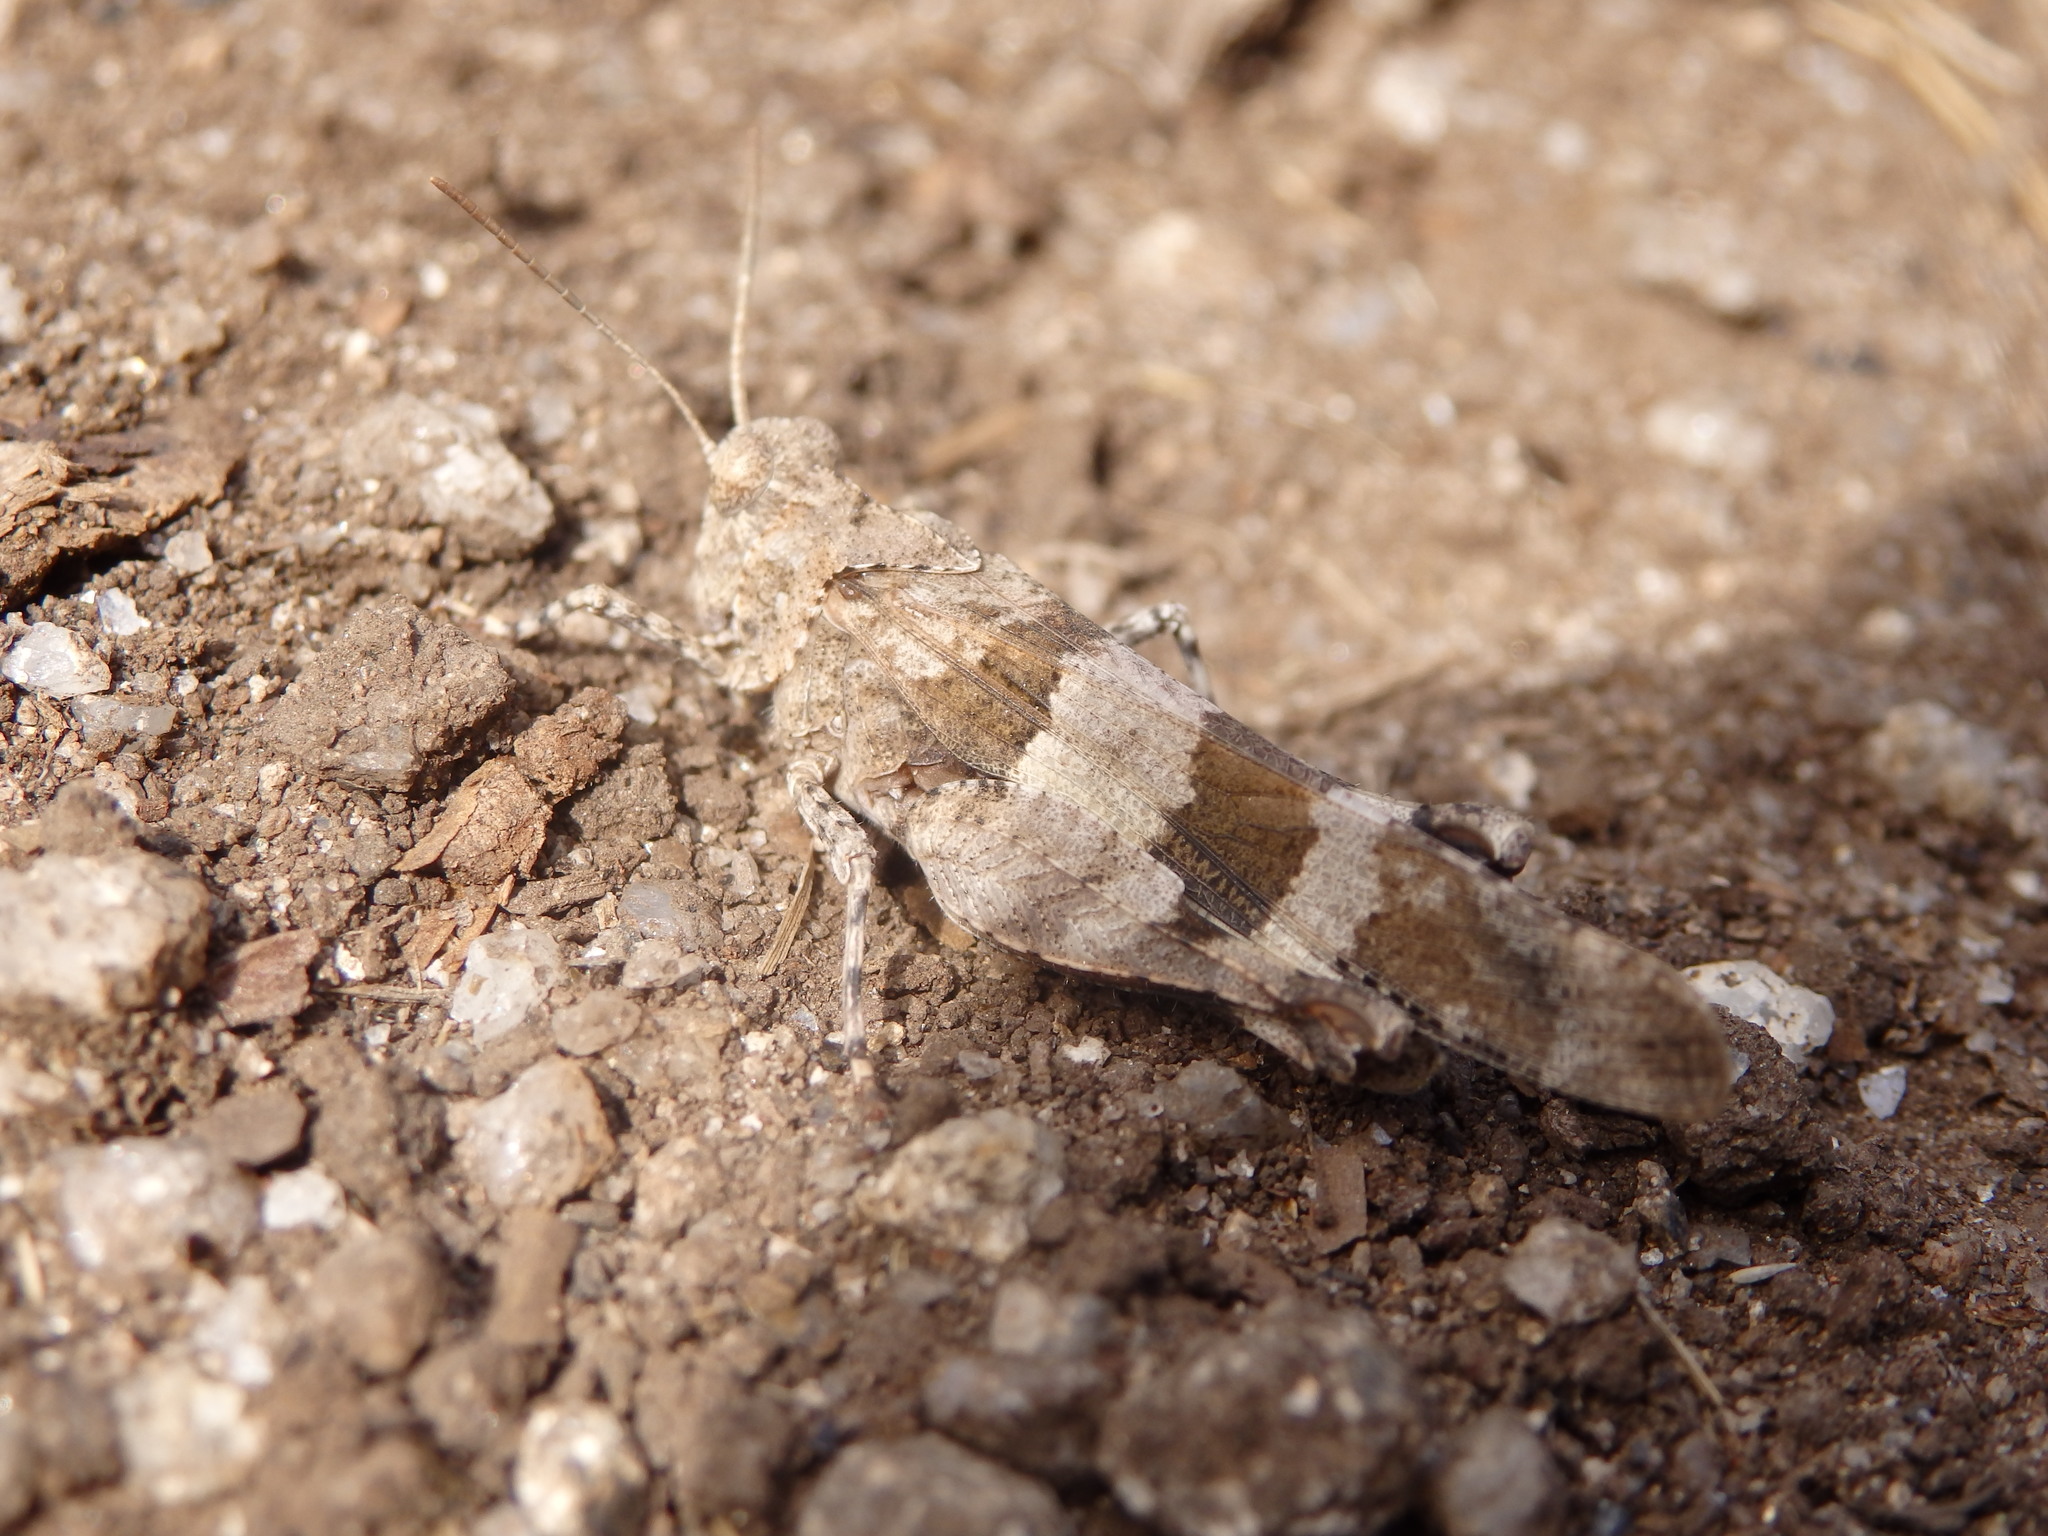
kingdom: Animalia
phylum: Arthropoda
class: Insecta
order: Orthoptera
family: Acrididae
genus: Oedipoda
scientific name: Oedipoda caerulescens
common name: Blue-winged grasshopper
